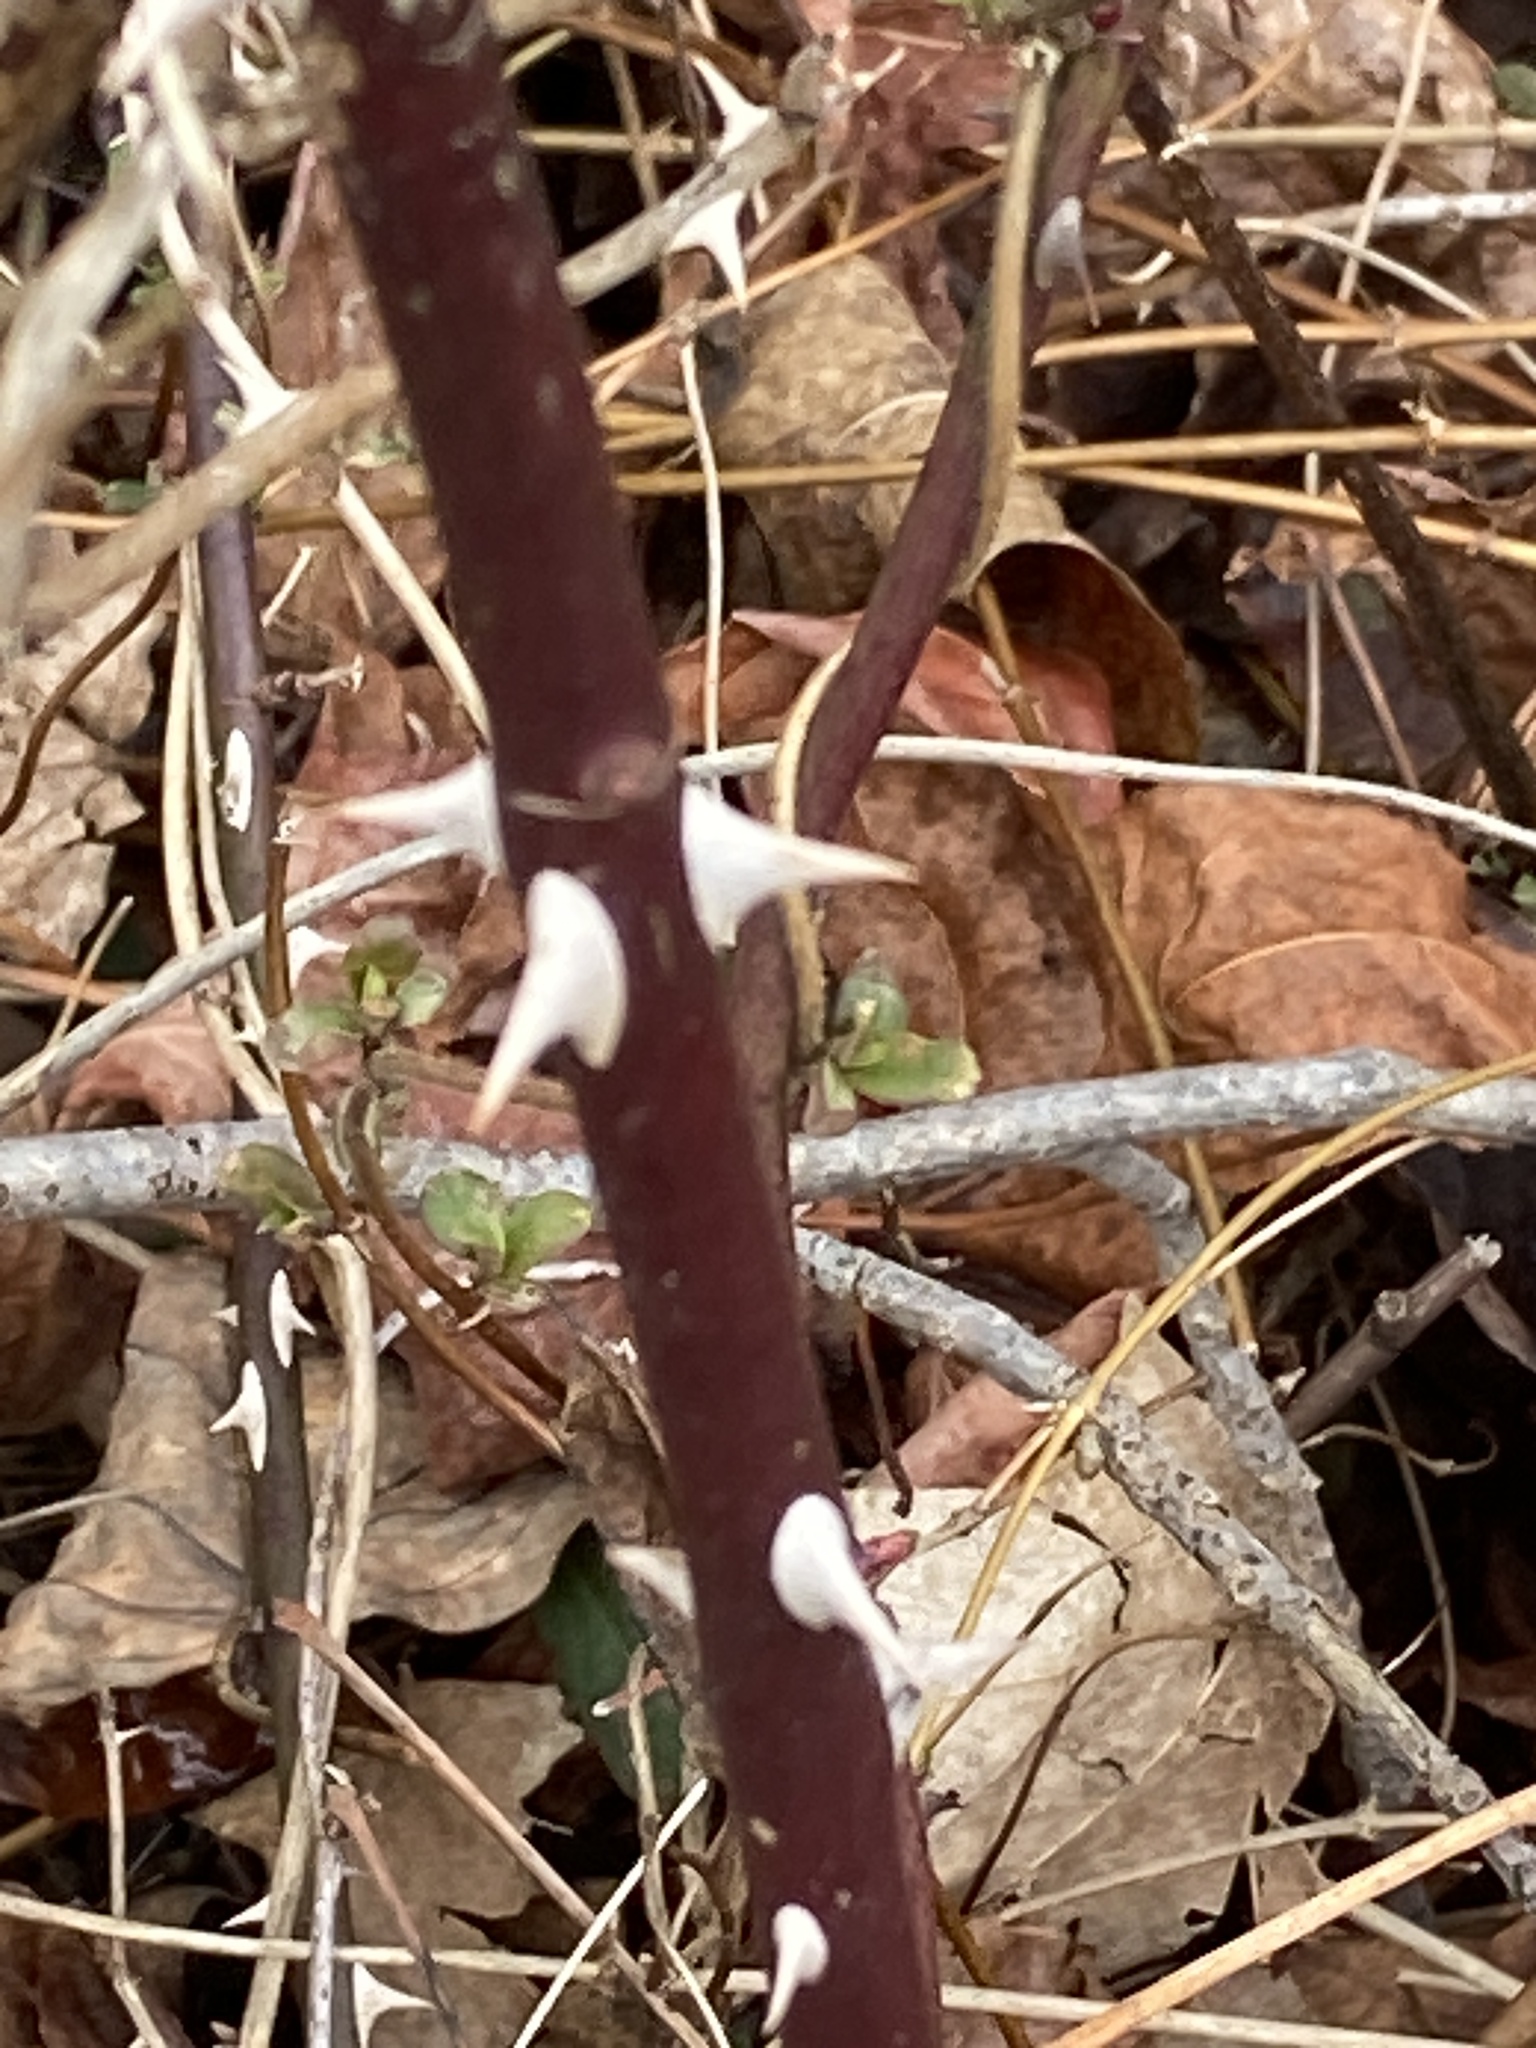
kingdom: Plantae
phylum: Tracheophyta
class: Magnoliopsida
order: Rosales
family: Rosaceae
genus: Rosa
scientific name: Rosa multiflora
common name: Multiflora rose
